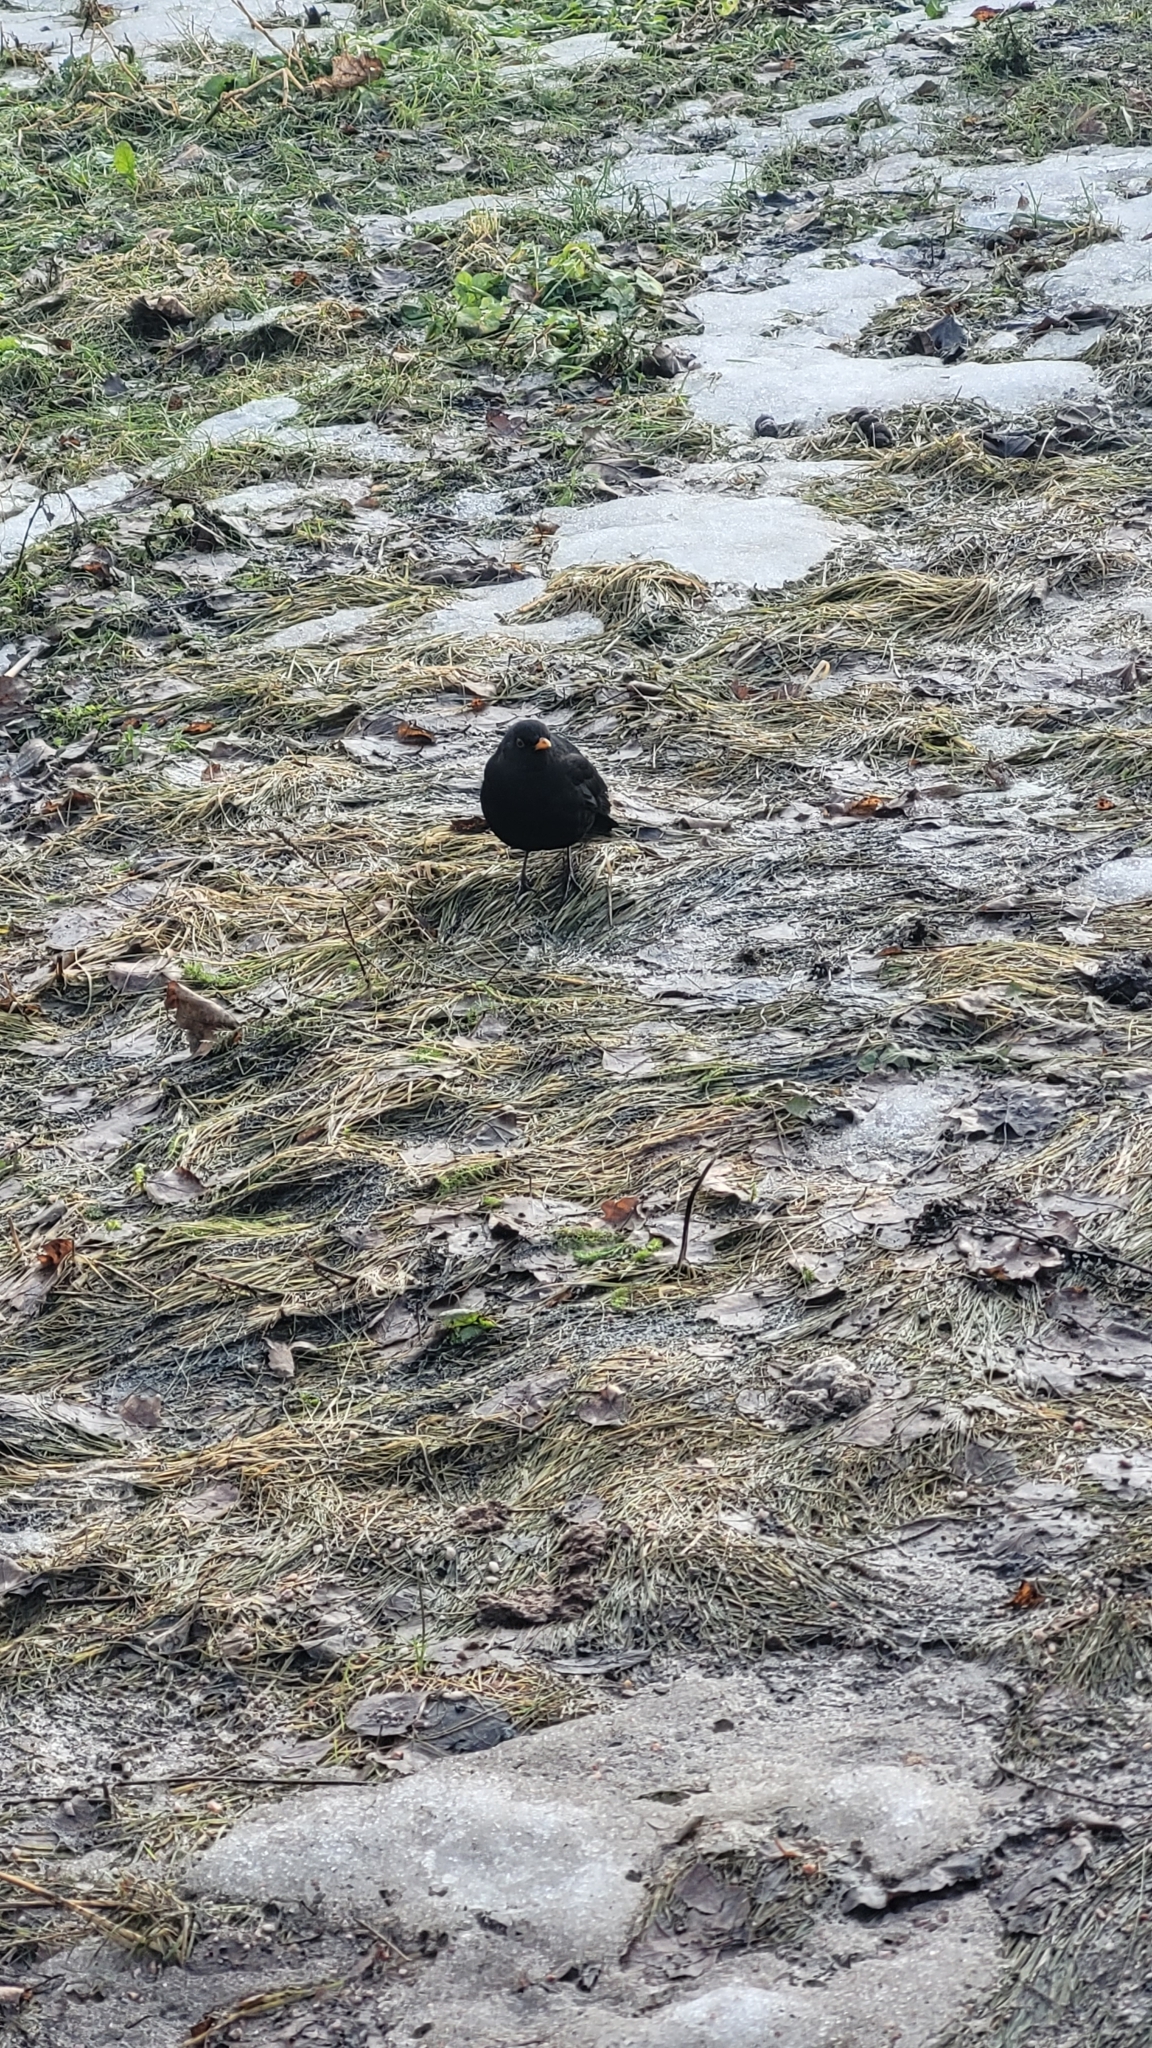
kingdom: Animalia
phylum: Chordata
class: Aves
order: Passeriformes
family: Turdidae
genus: Turdus
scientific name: Turdus merula
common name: Common blackbird
